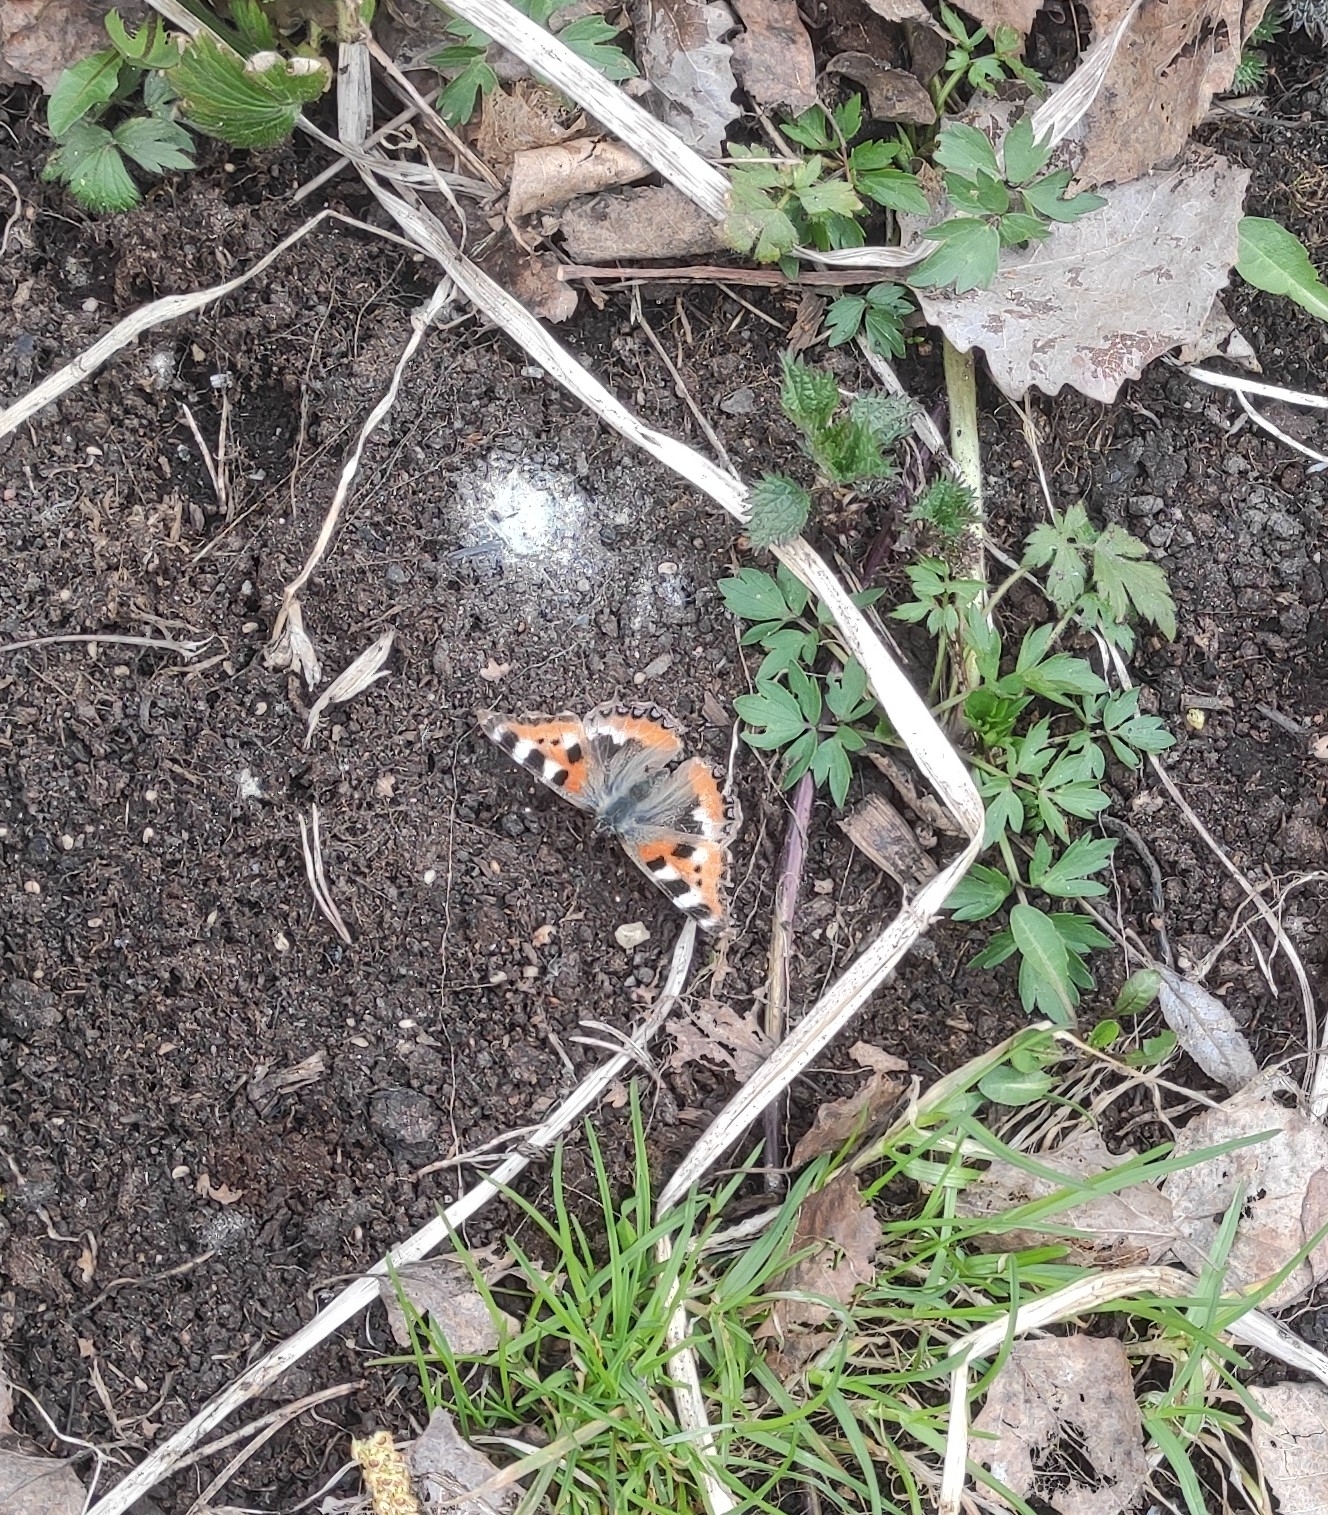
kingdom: Animalia
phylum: Arthropoda
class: Insecta
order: Lepidoptera
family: Nymphalidae
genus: Aglais
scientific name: Aglais urticae
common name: Small tortoiseshell
